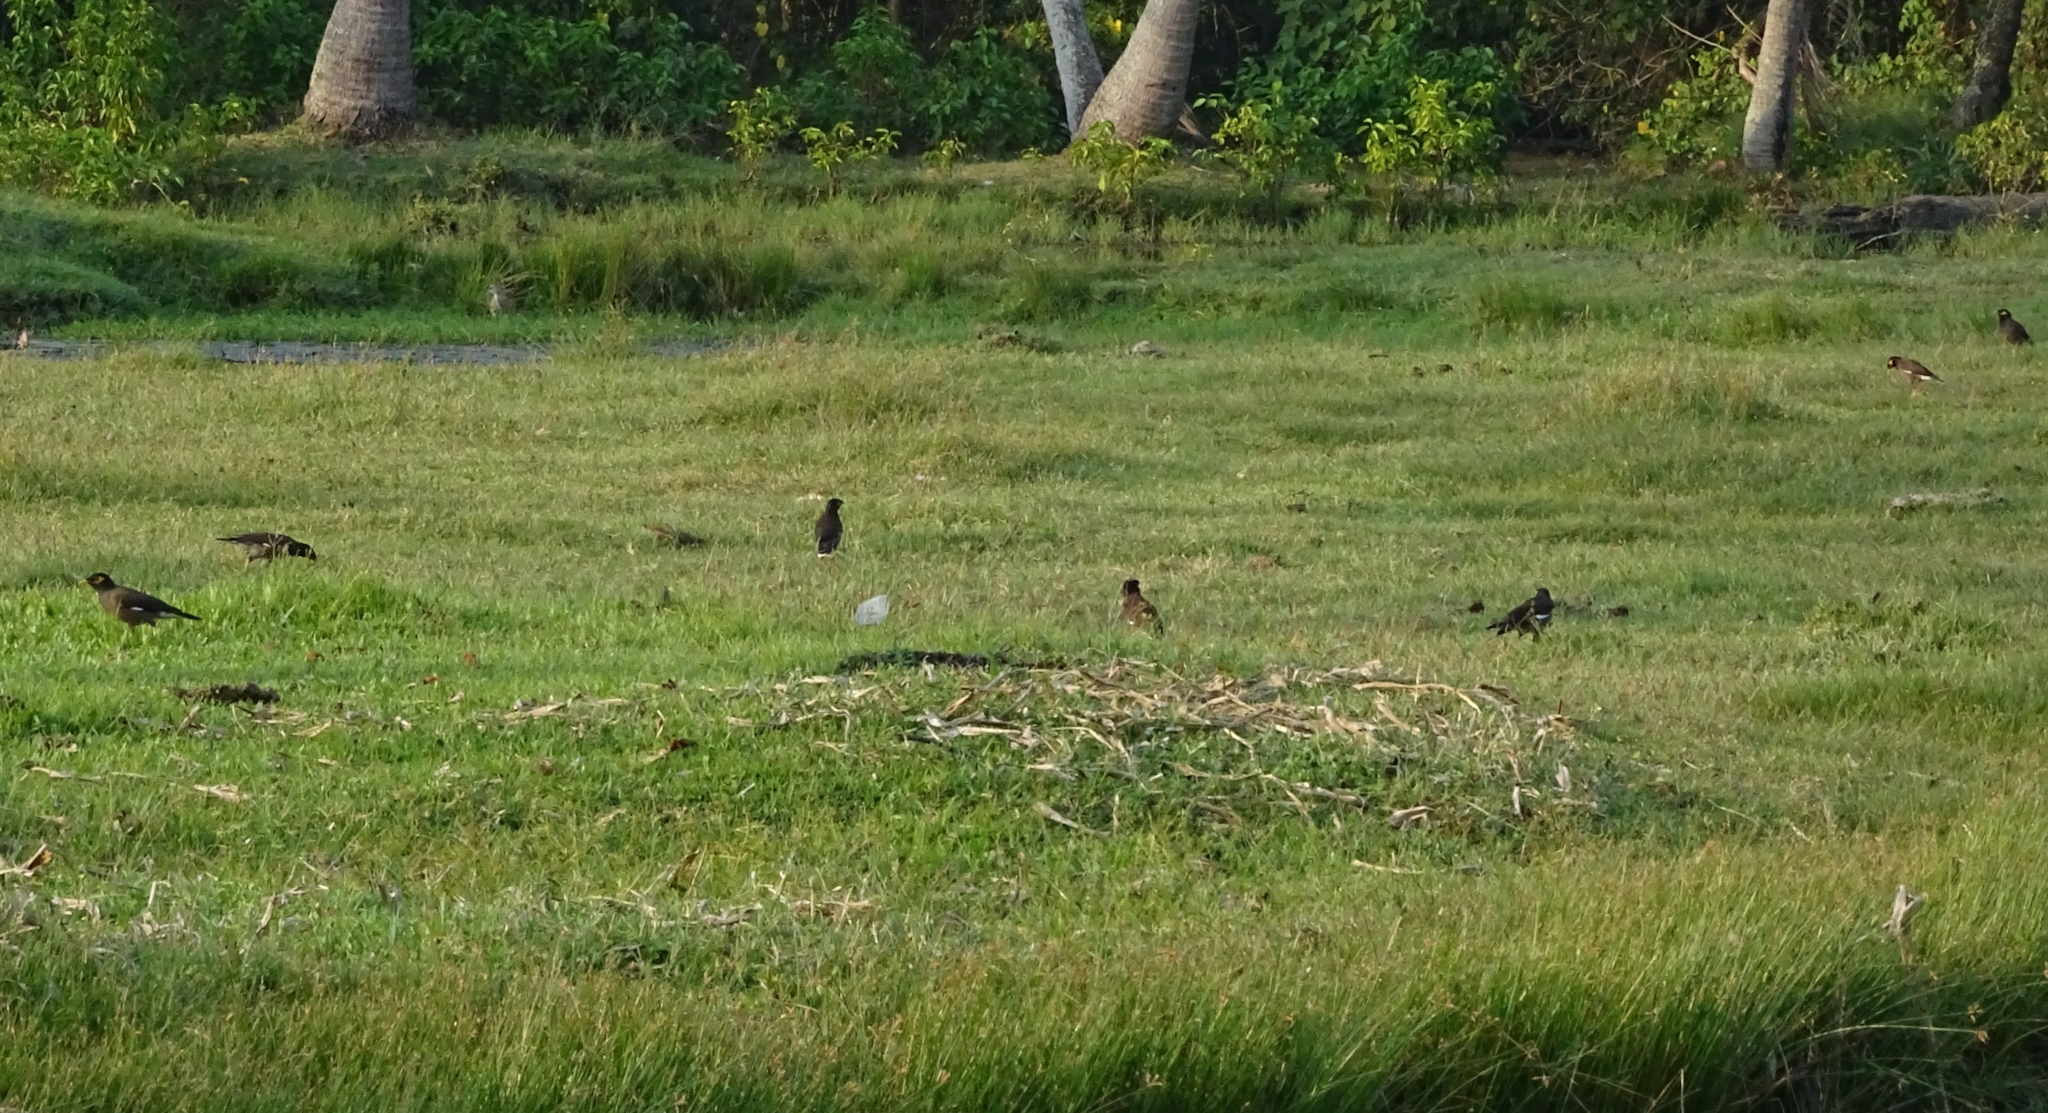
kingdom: Animalia
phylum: Chordata
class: Aves
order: Passeriformes
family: Sturnidae
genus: Acridotheres
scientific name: Acridotheres tristis
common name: Common myna
